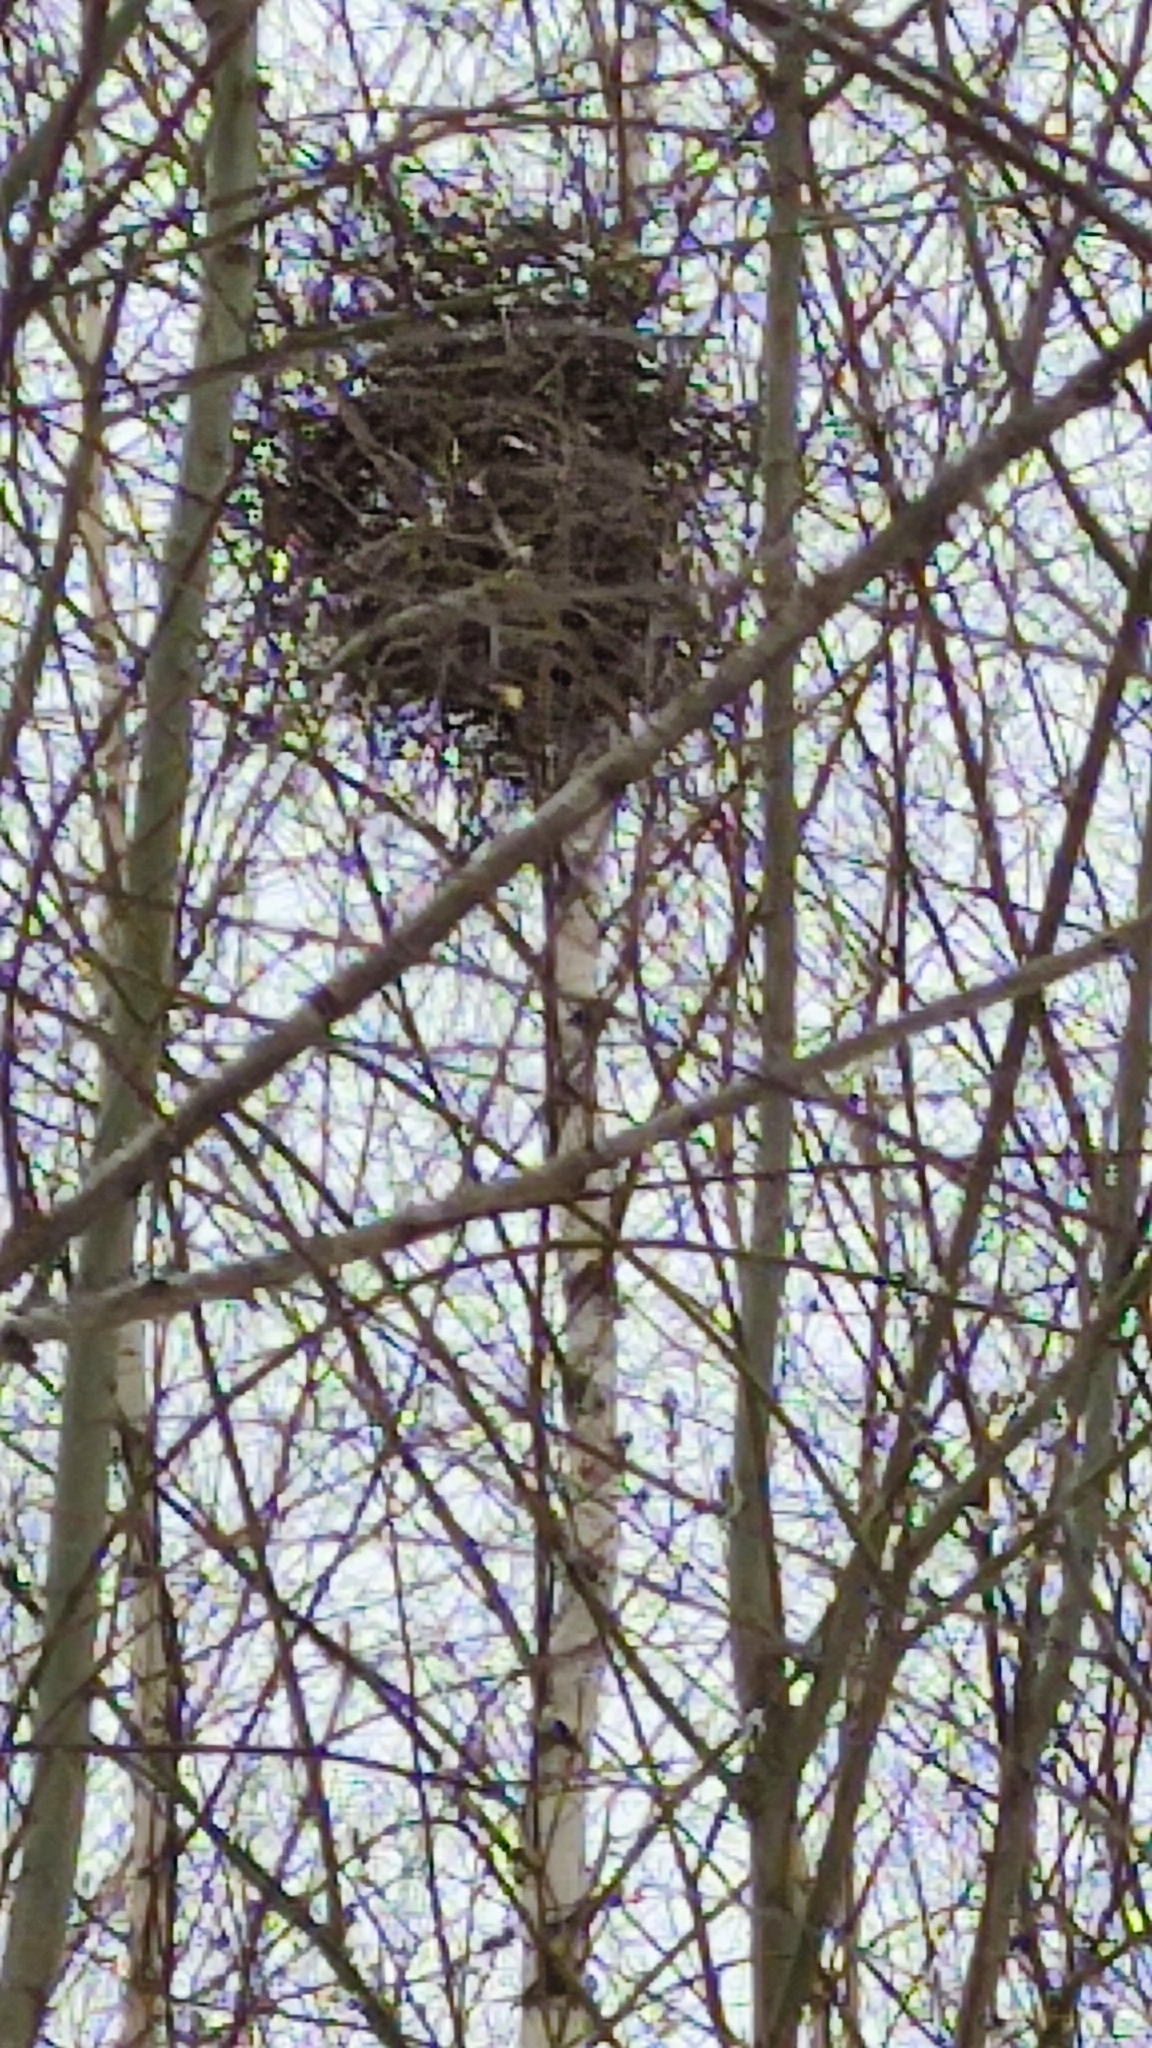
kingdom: Animalia
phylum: Chordata
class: Aves
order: Passeriformes
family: Corvidae
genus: Pica
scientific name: Pica pica
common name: Eurasian magpie
